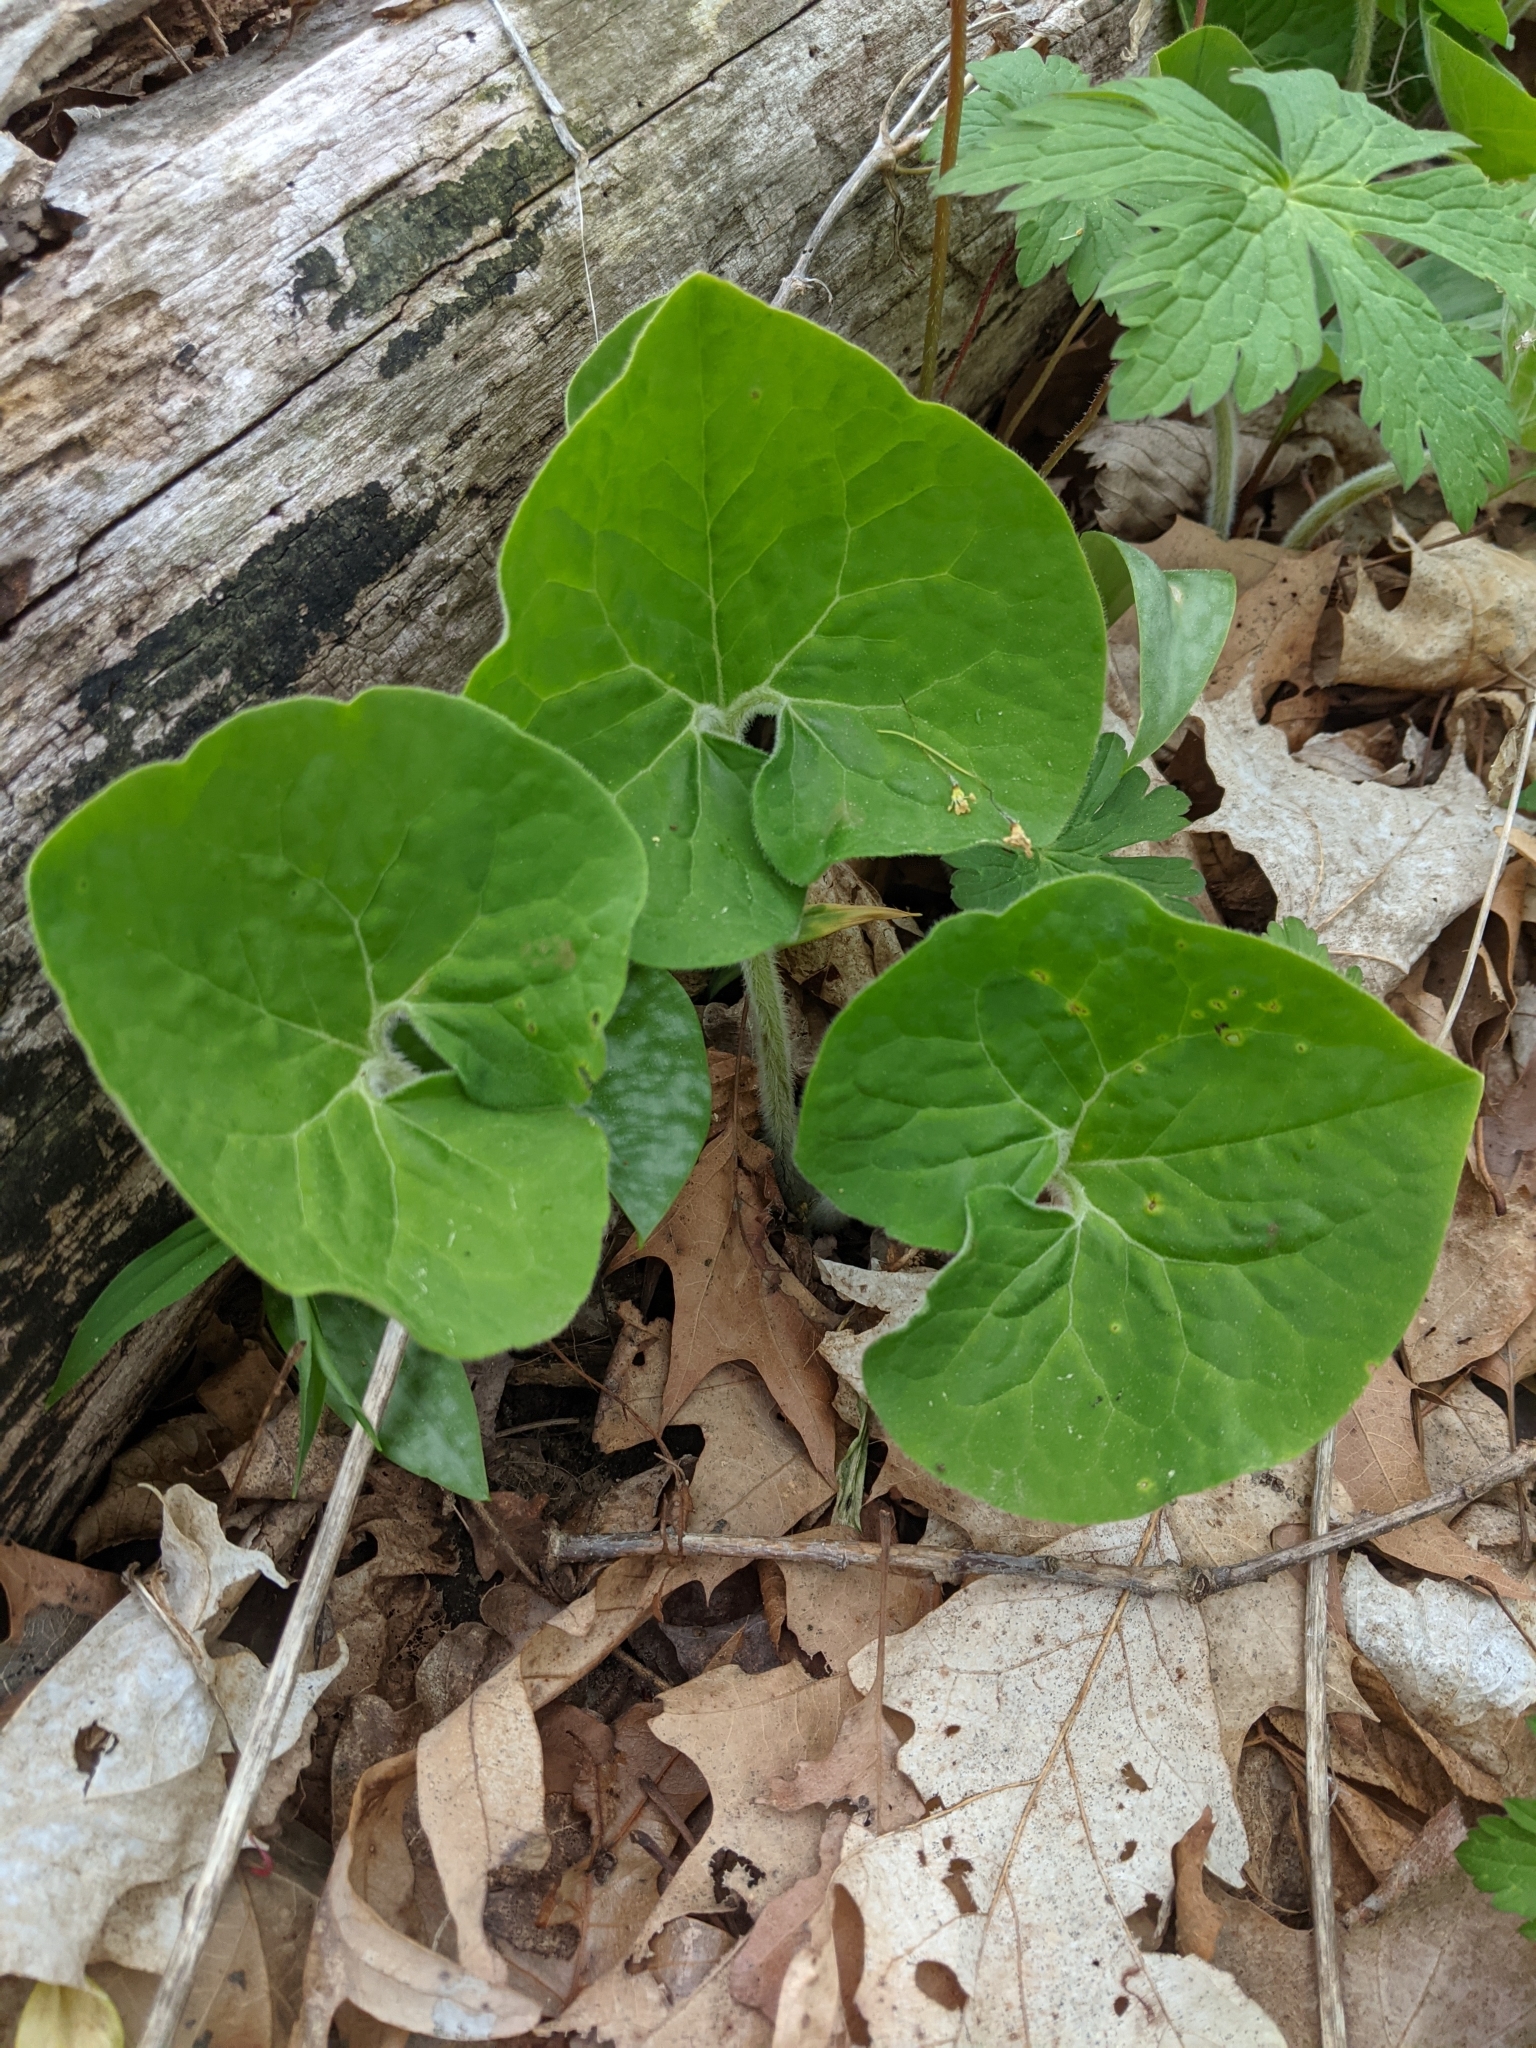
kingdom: Plantae
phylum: Tracheophyta
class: Magnoliopsida
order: Piperales
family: Aristolochiaceae
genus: Asarum
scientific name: Asarum canadense
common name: Wild ginger
